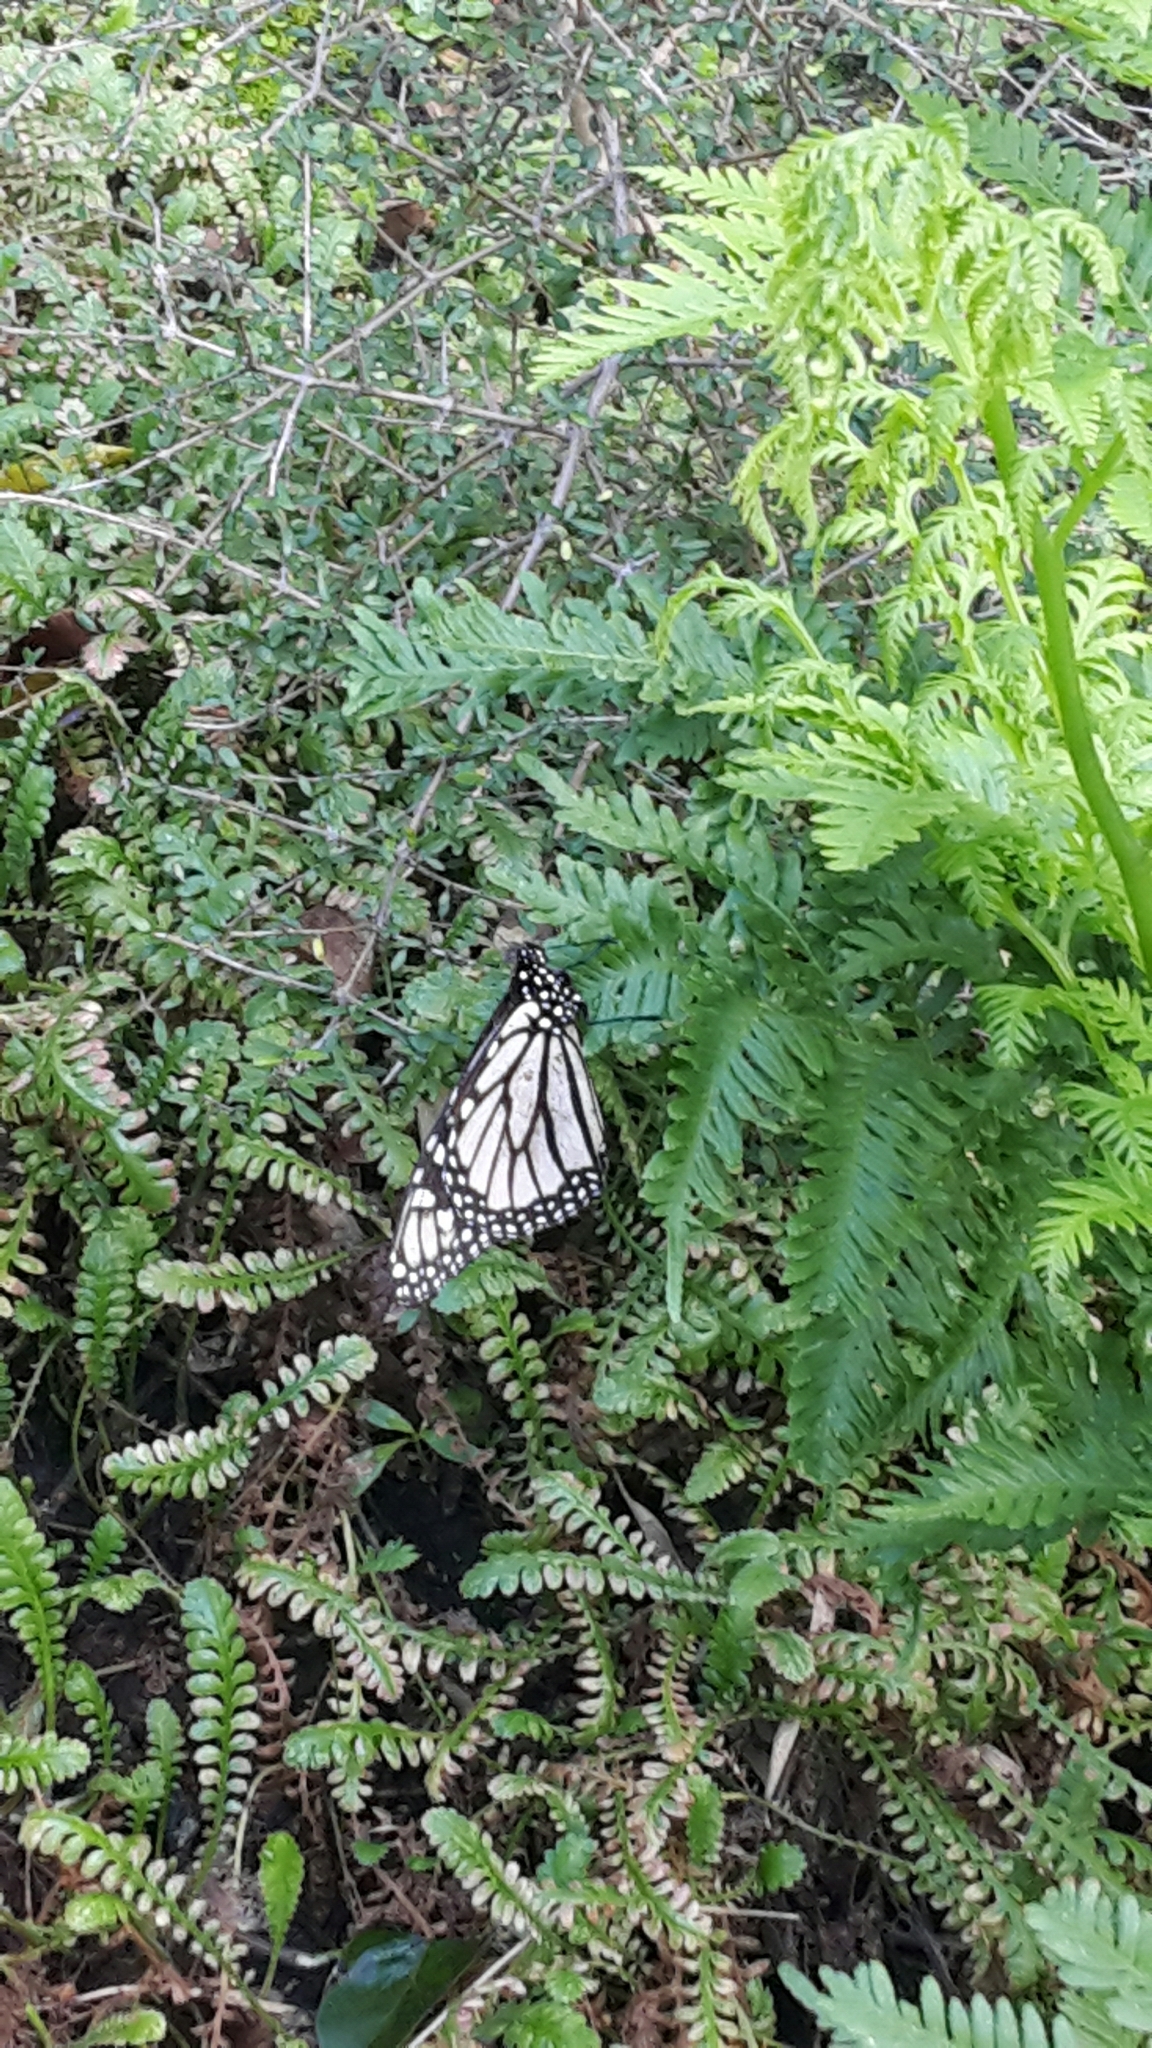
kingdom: Animalia
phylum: Arthropoda
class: Insecta
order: Lepidoptera
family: Nymphalidae
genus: Danaus
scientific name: Danaus plexippus
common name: Monarch
